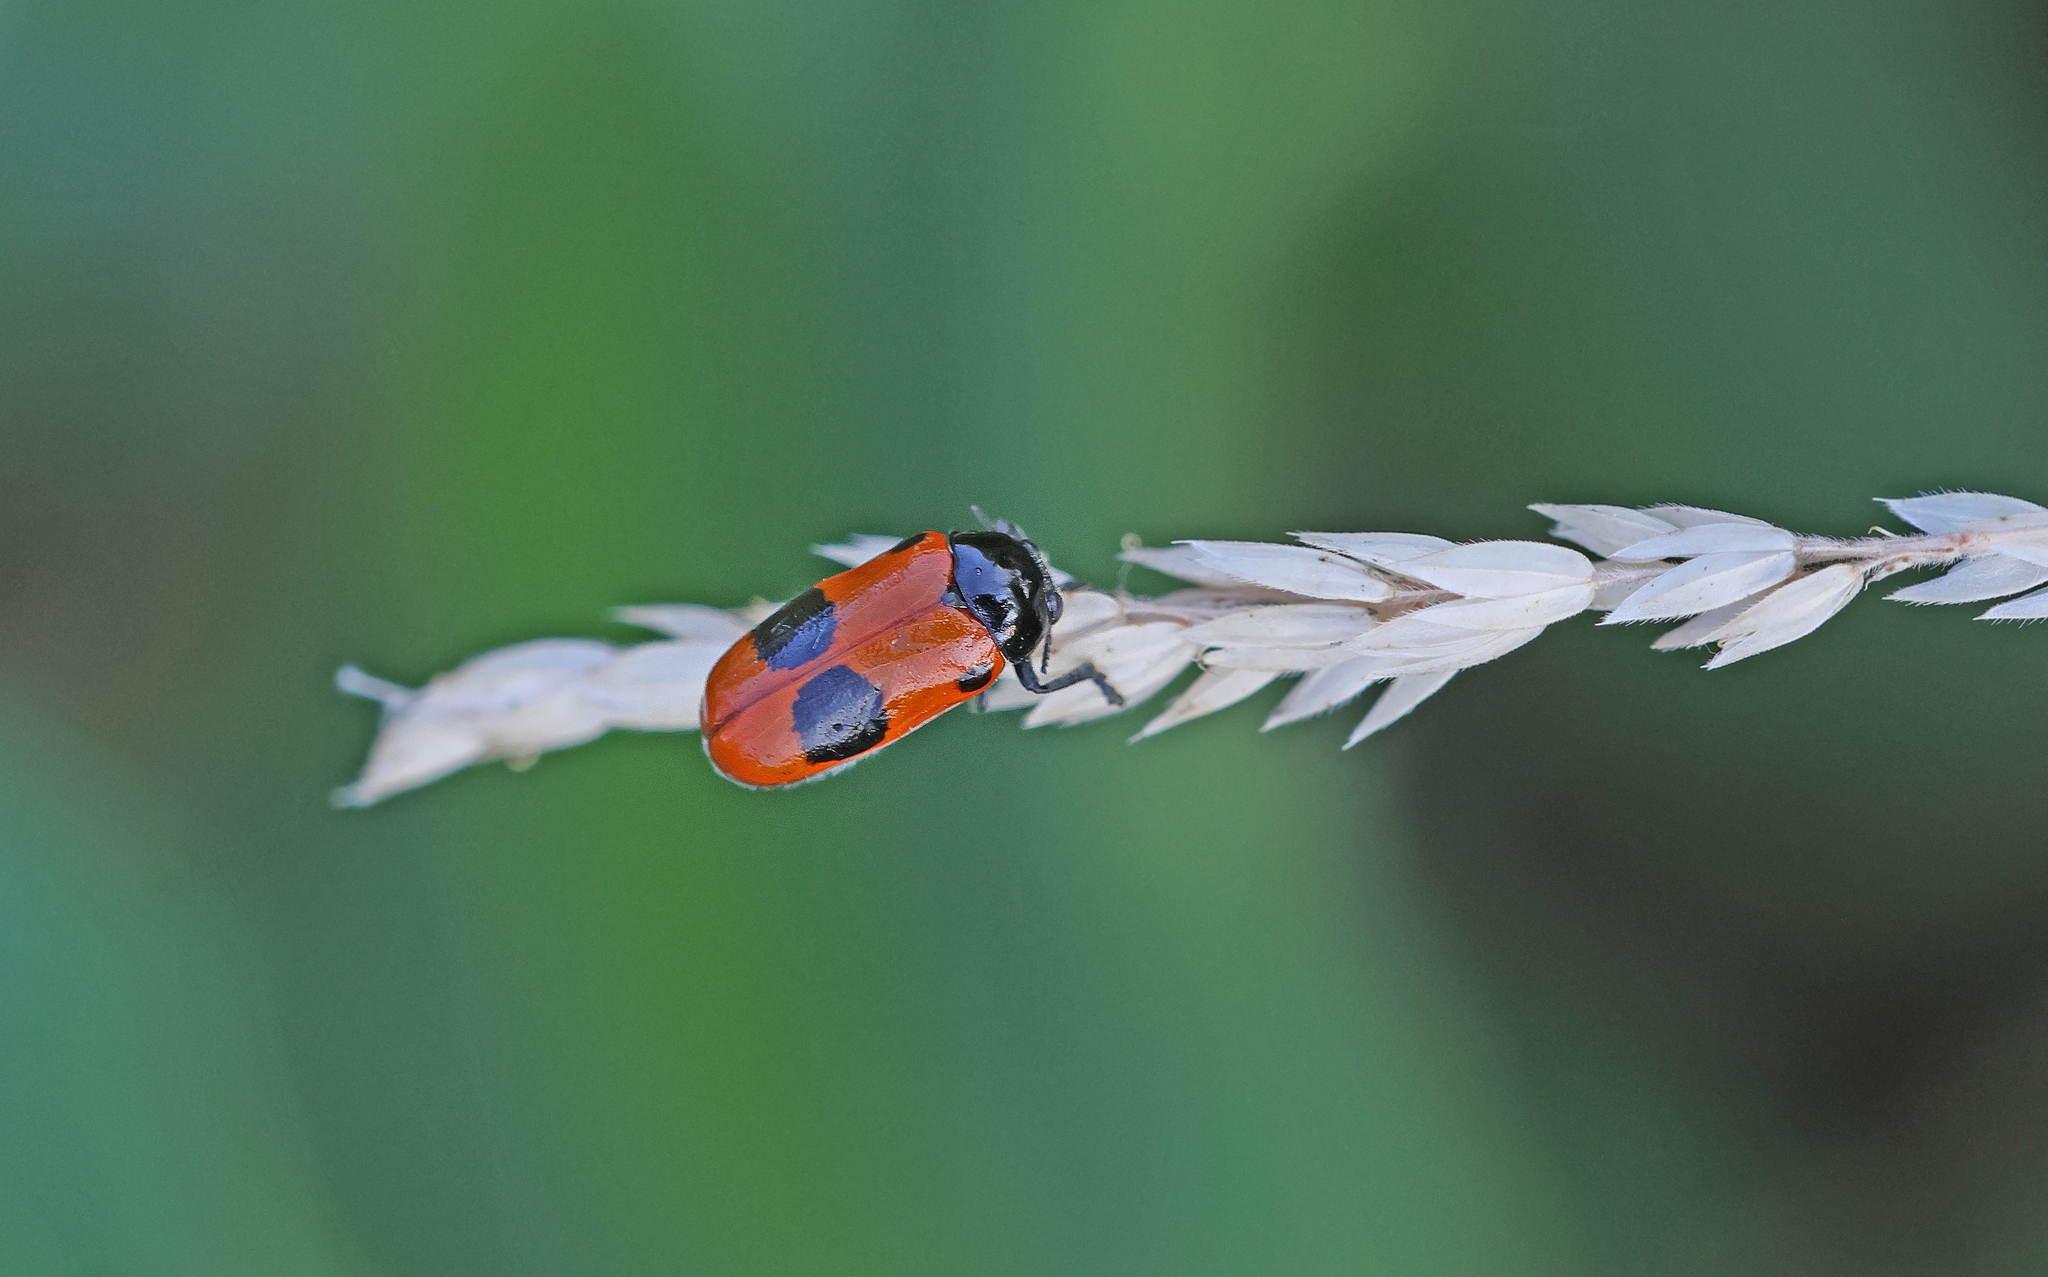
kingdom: Animalia
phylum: Arthropoda
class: Insecta
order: Coleoptera
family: Chrysomelidae
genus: Clytra
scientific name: Clytra laeviuscula
